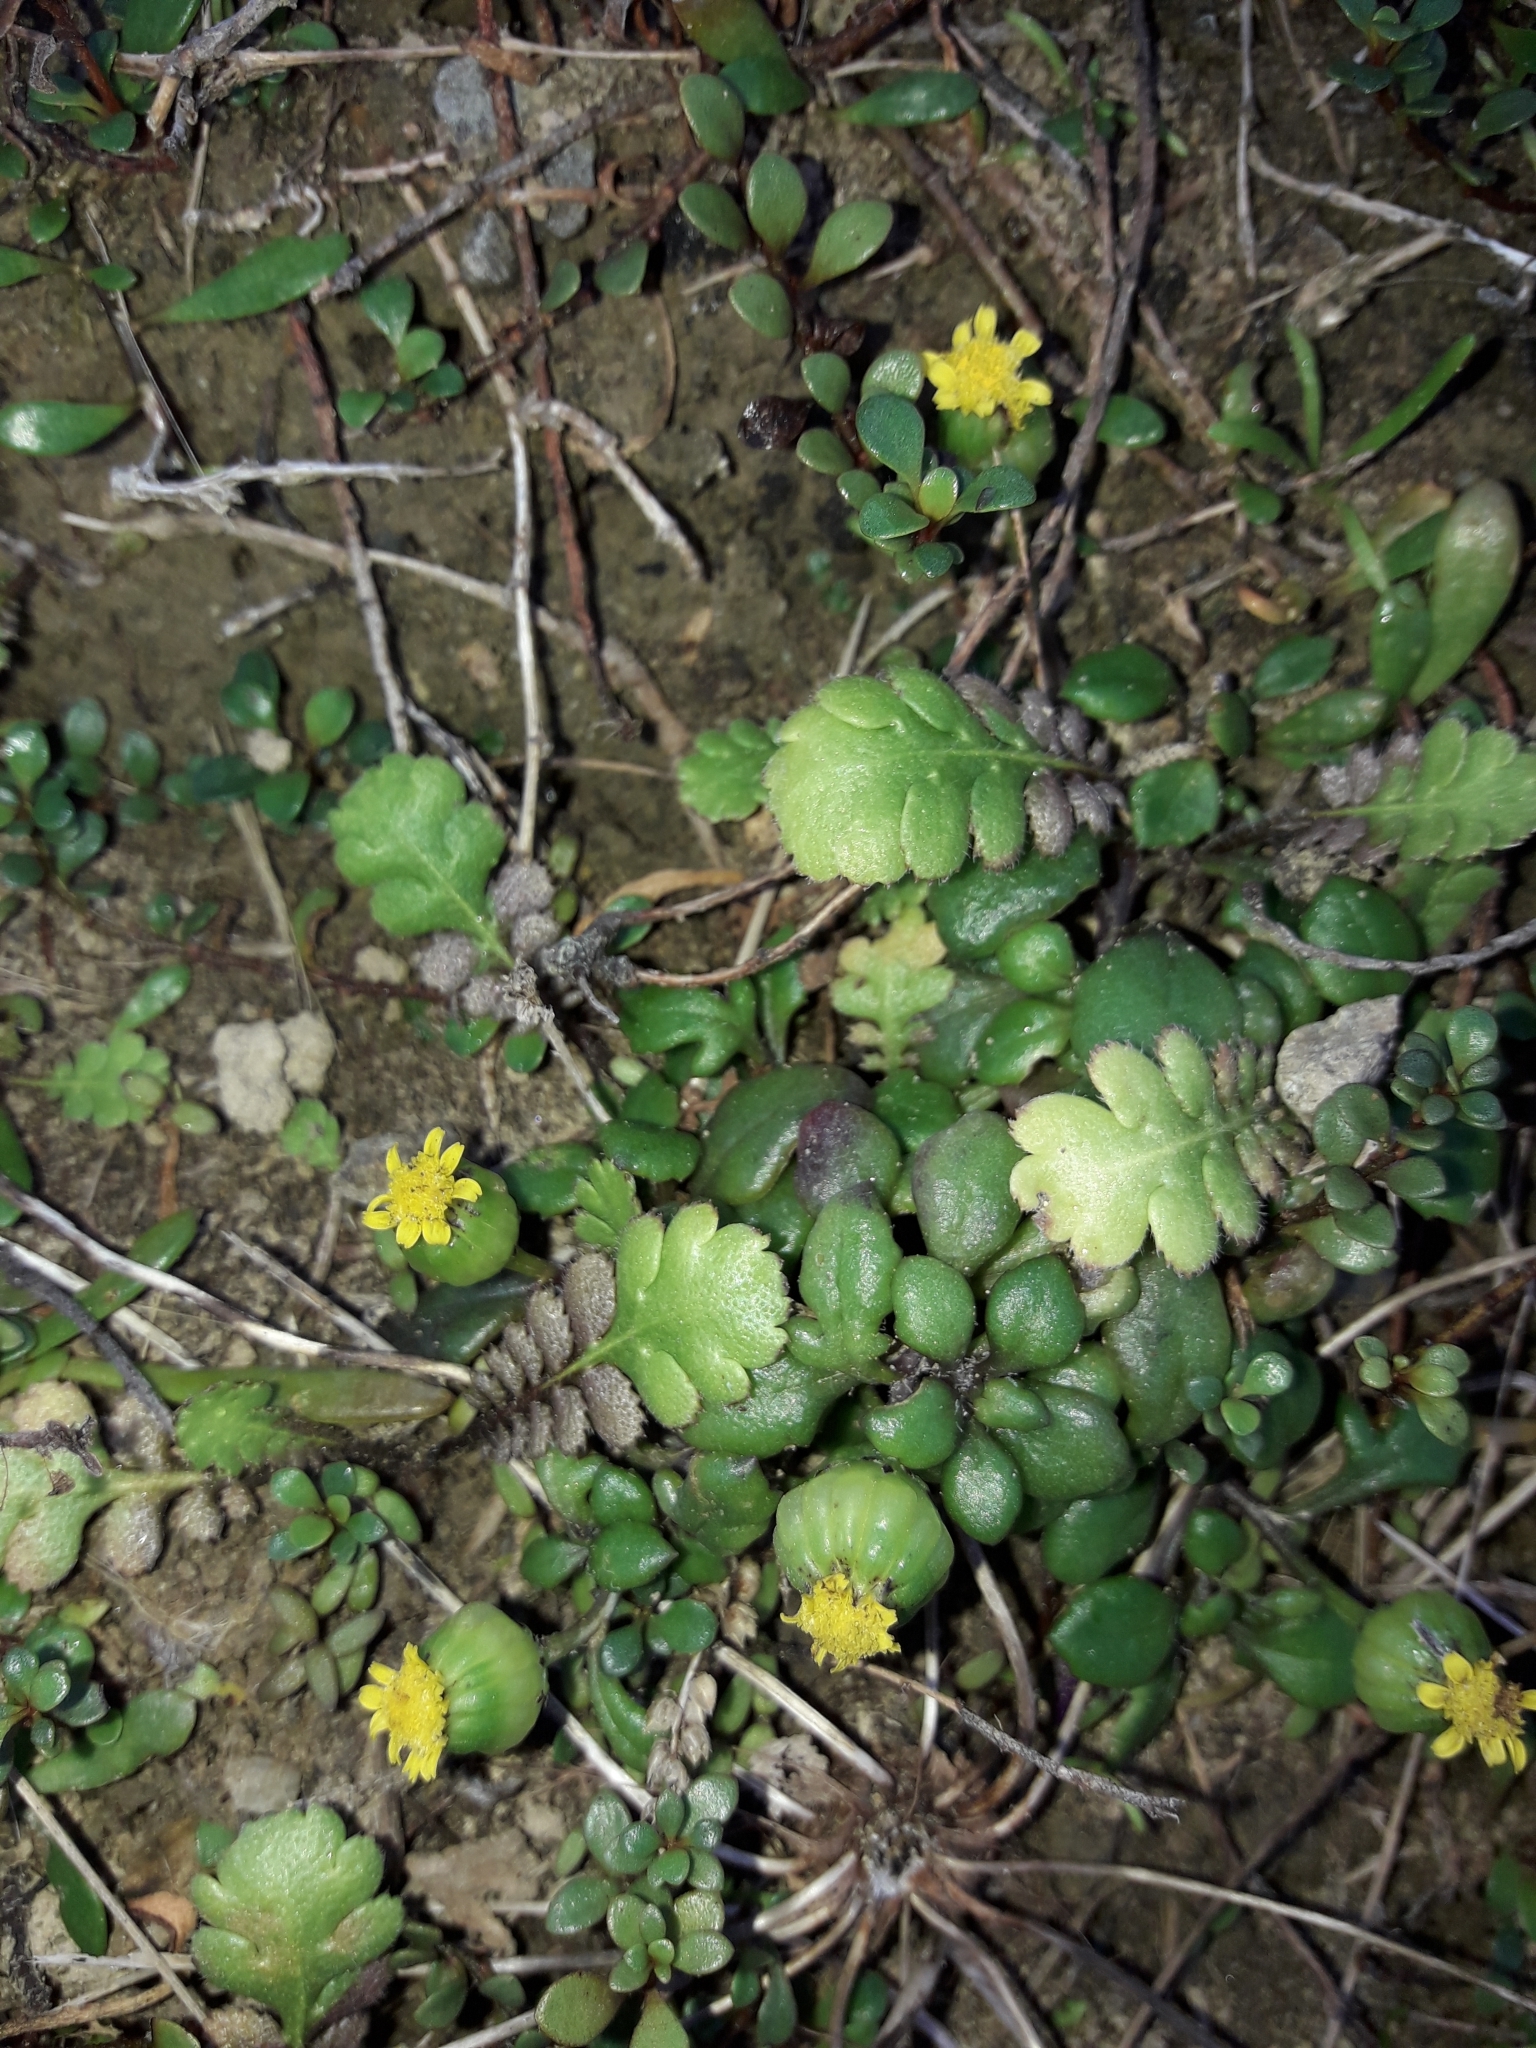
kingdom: Plantae
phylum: Tracheophyta
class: Magnoliopsida
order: Asterales
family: Asteraceae
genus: Senecio
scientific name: Senecio lautus
